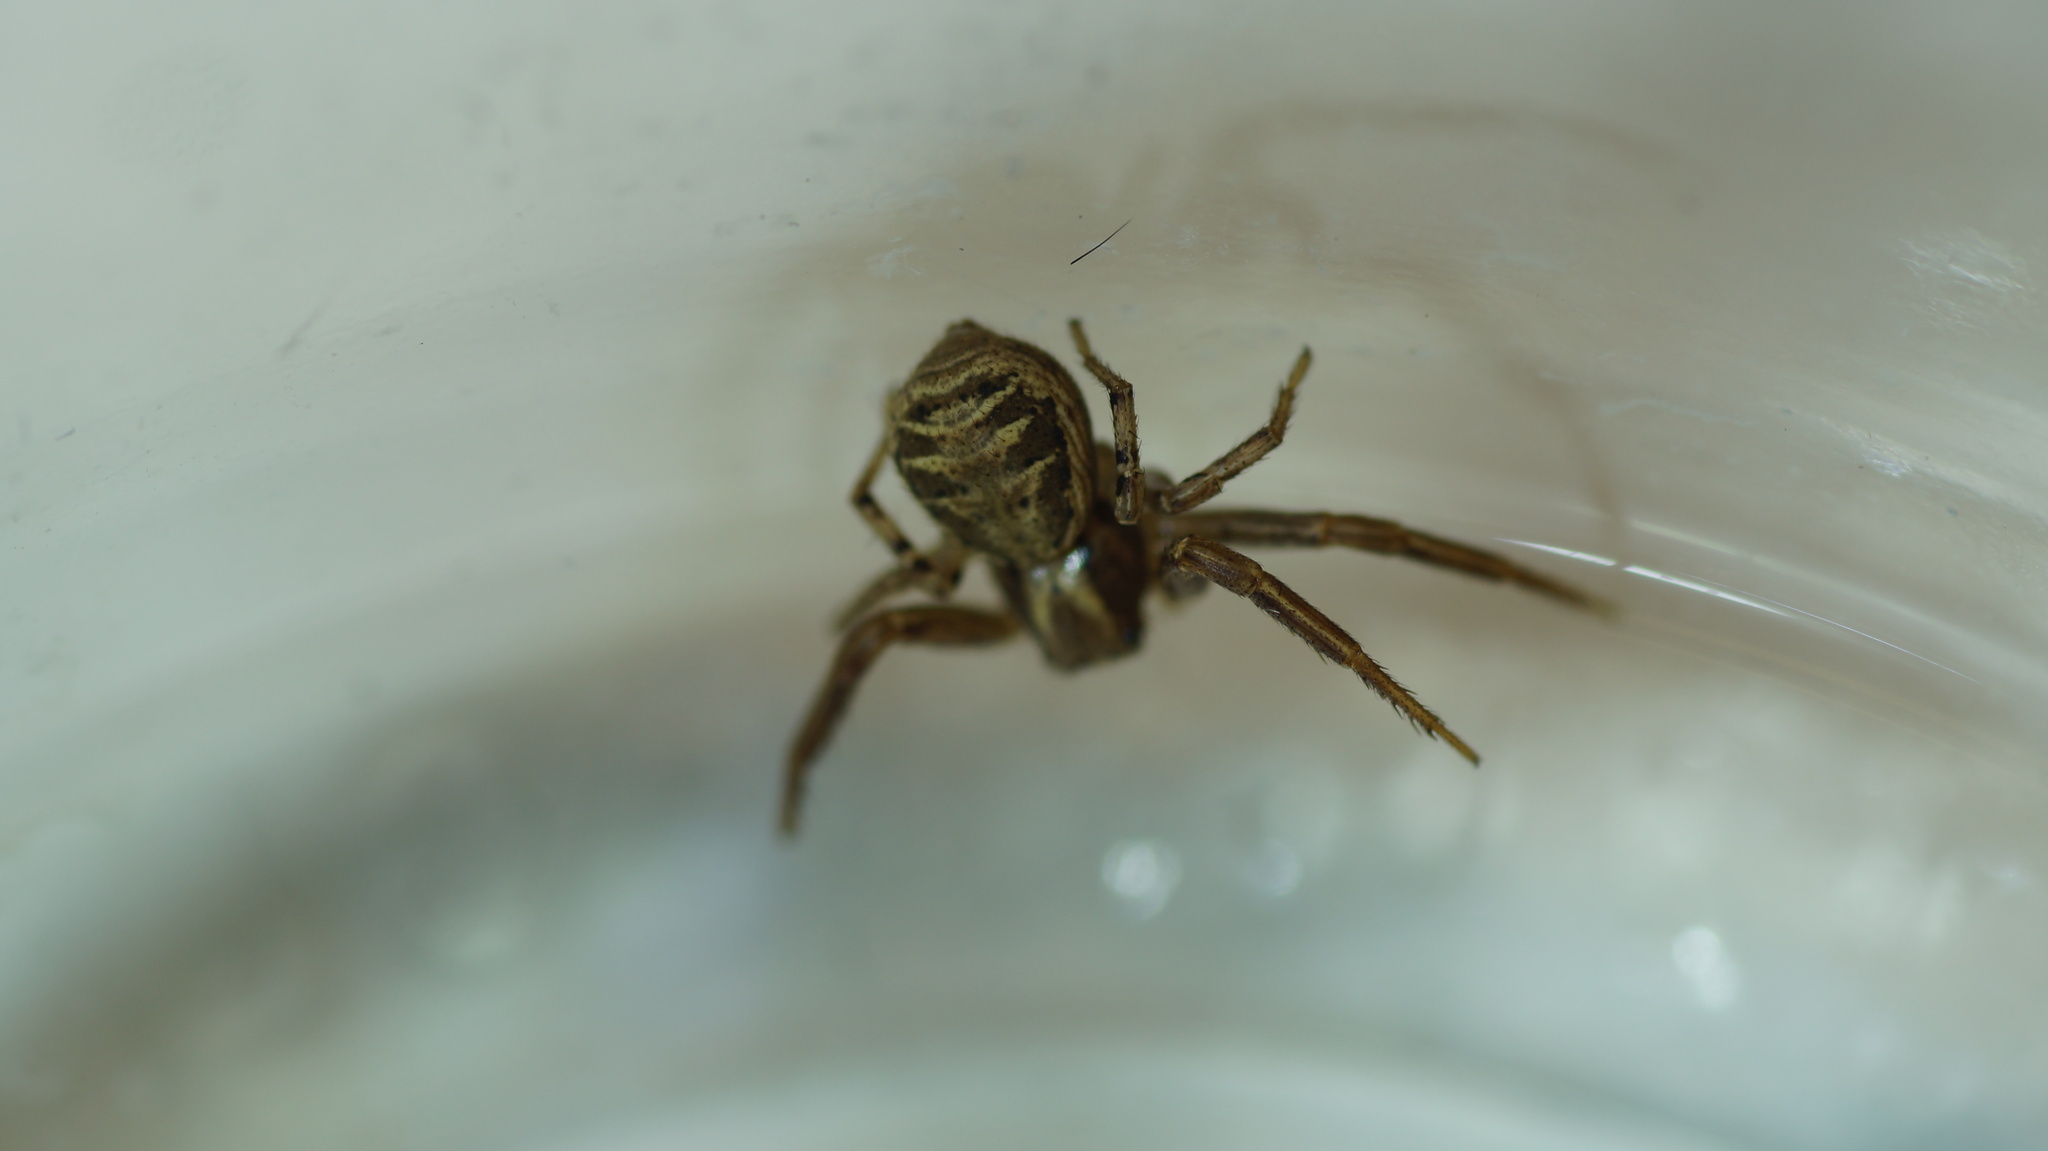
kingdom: Animalia
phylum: Arthropoda
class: Arachnida
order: Araneae
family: Thomisidae
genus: Xysticus
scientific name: Xysticus cristatus
